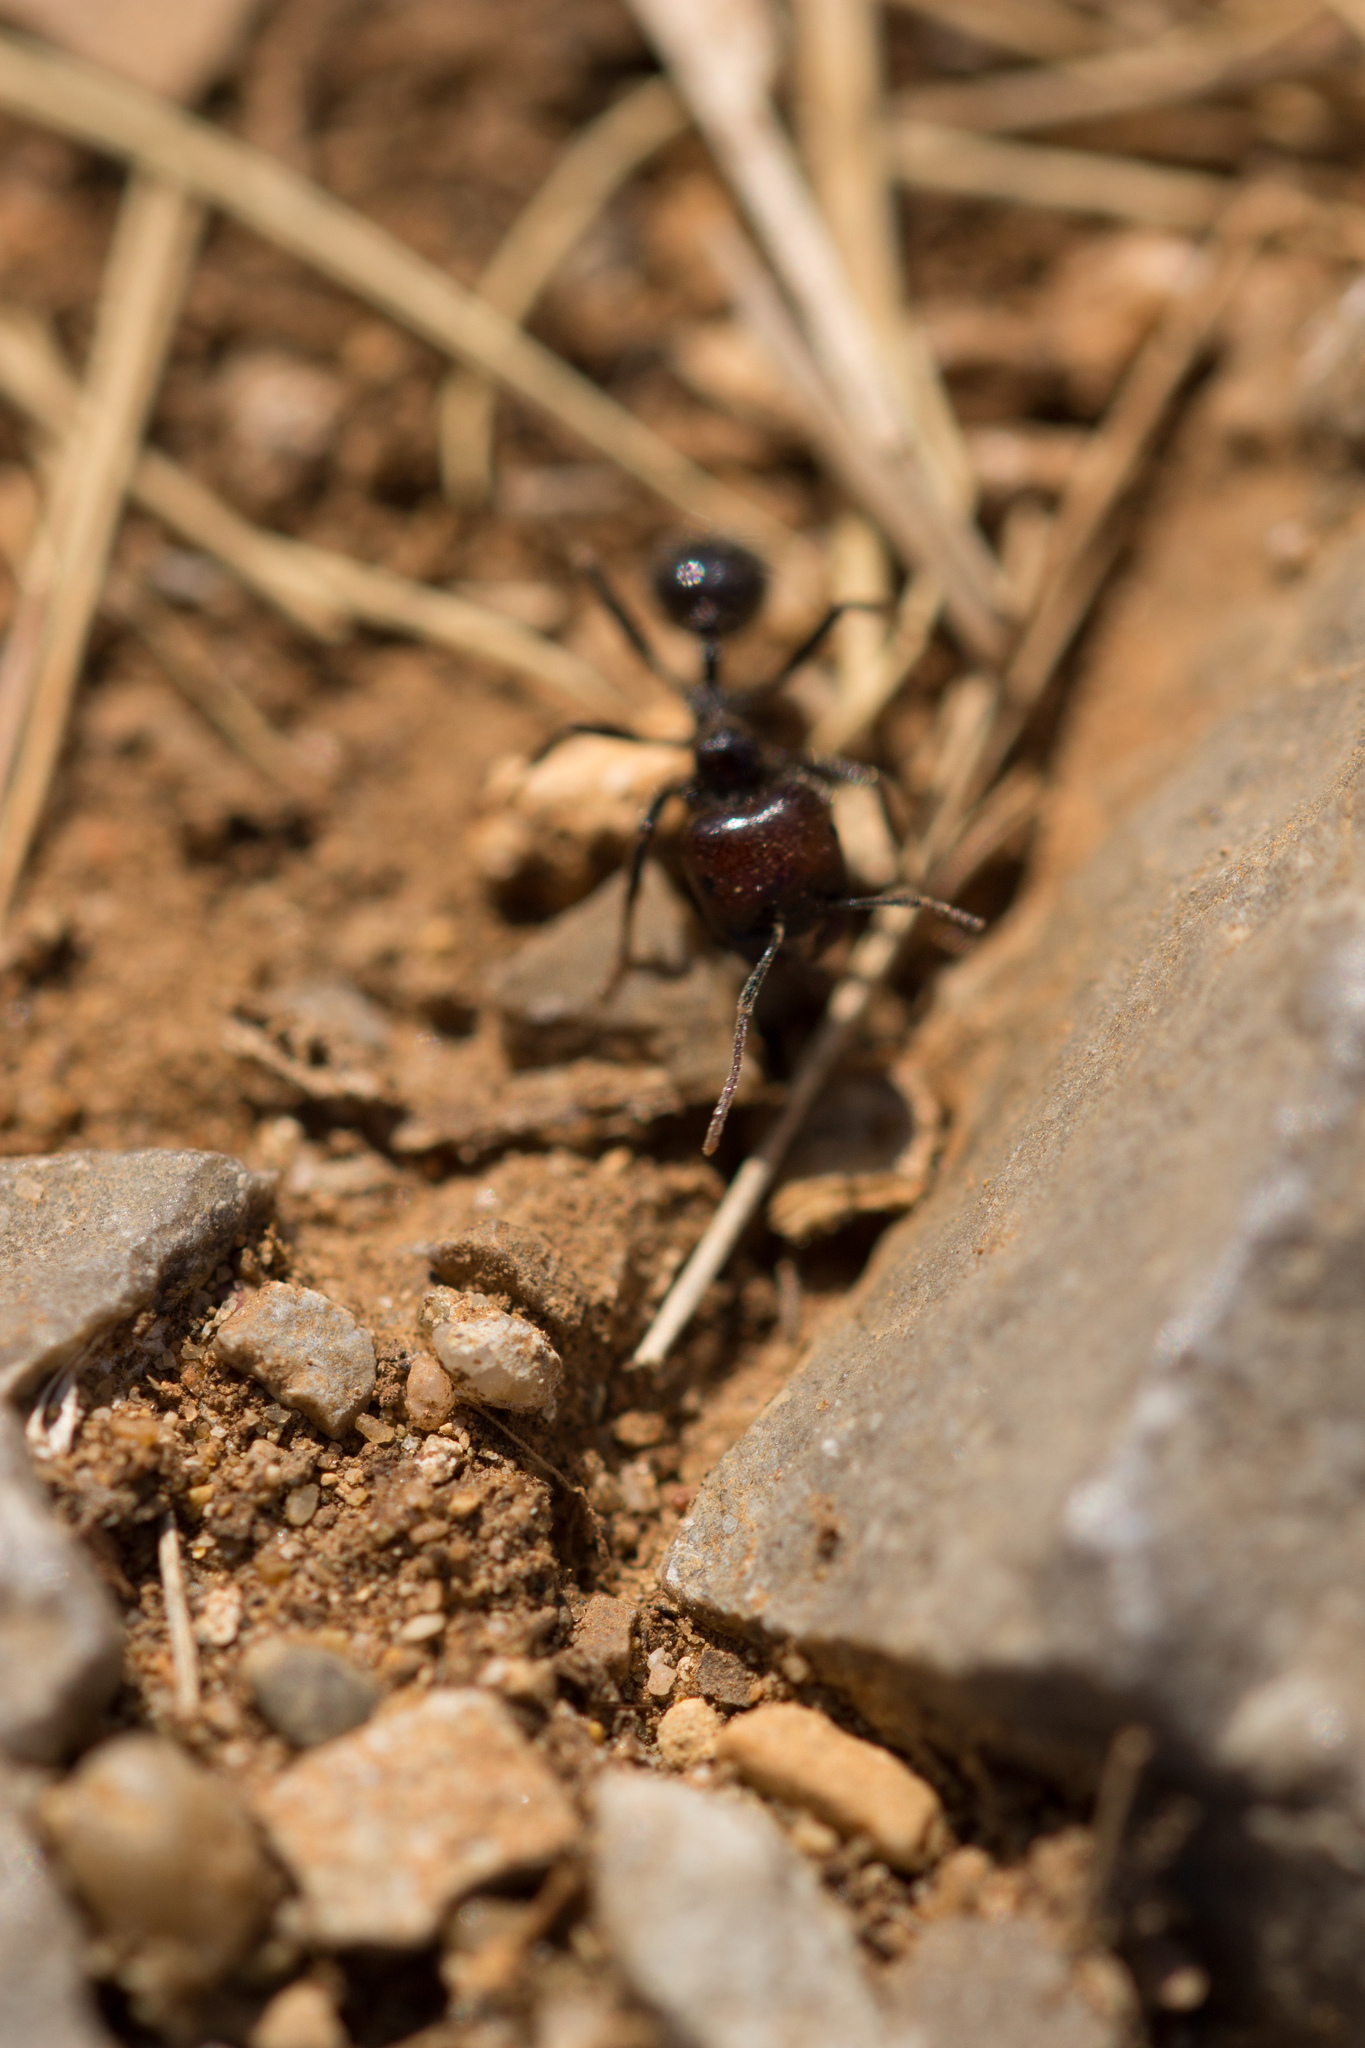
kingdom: Animalia
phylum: Arthropoda
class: Insecta
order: Hymenoptera
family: Formicidae
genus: Messor
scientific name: Messor barbarus
